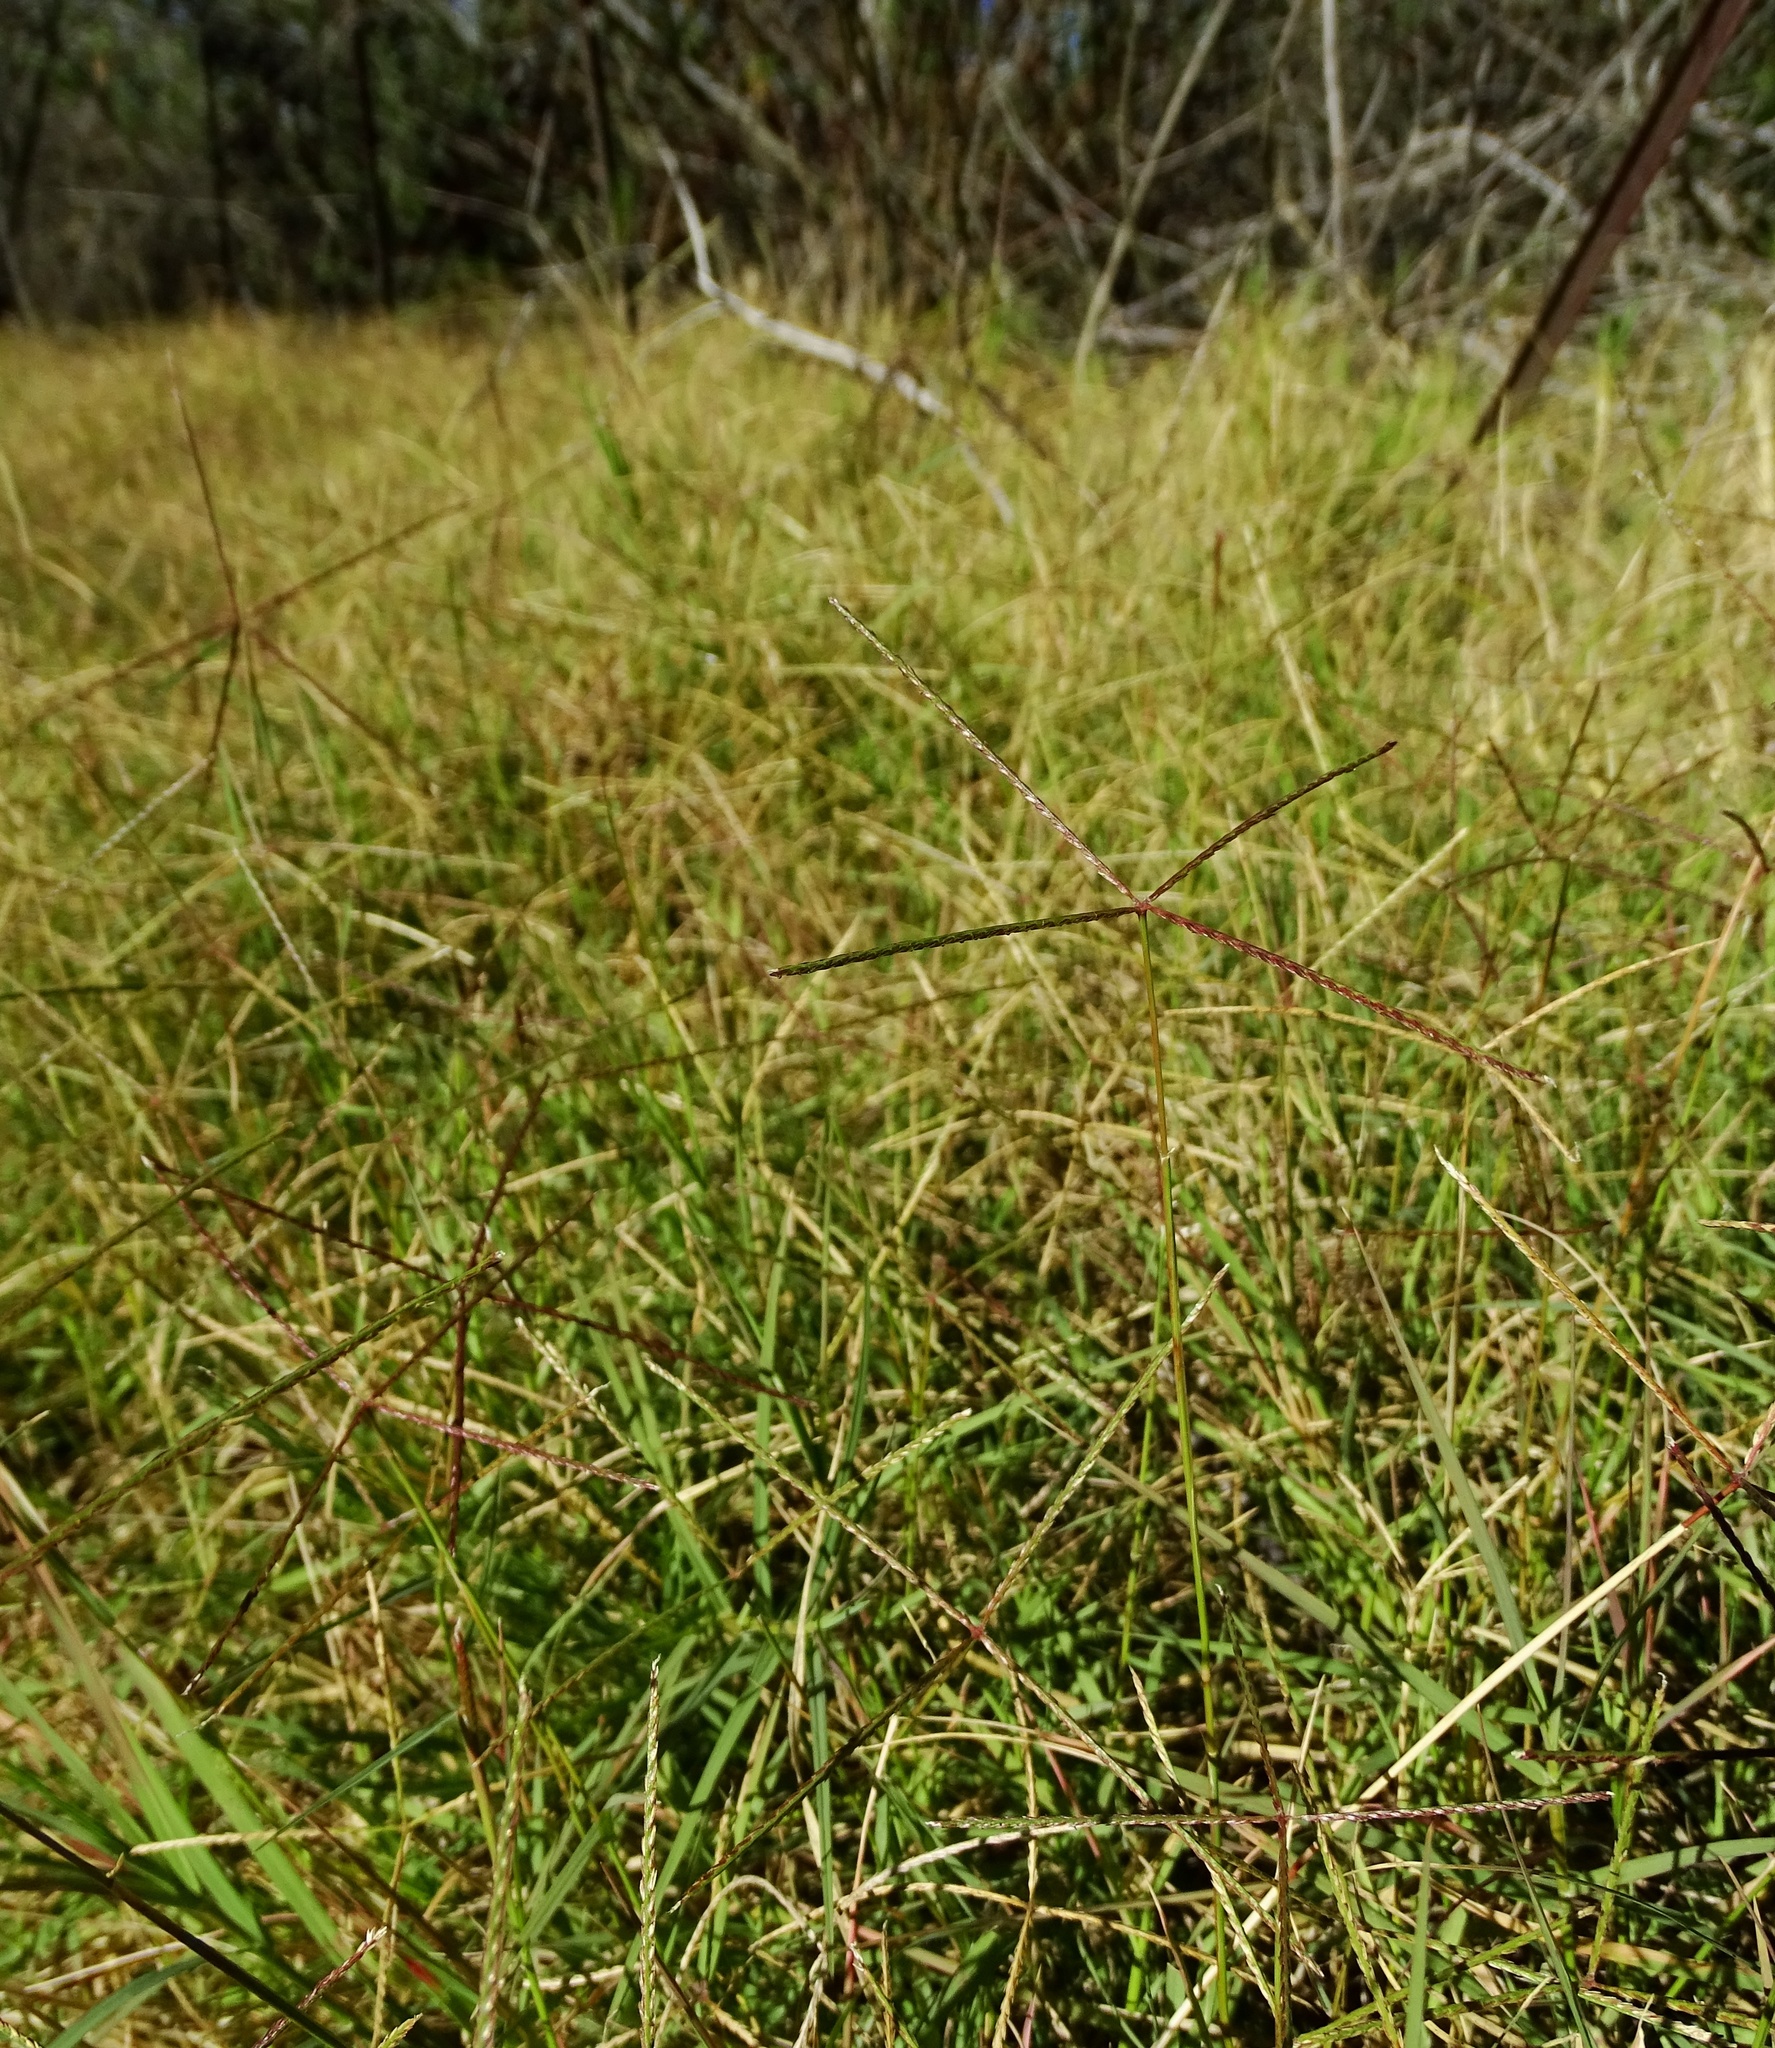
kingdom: Plantae
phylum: Tracheophyta
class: Liliopsida
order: Poales
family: Poaceae
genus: Cynodon
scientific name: Cynodon dactylon
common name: Bermuda grass
